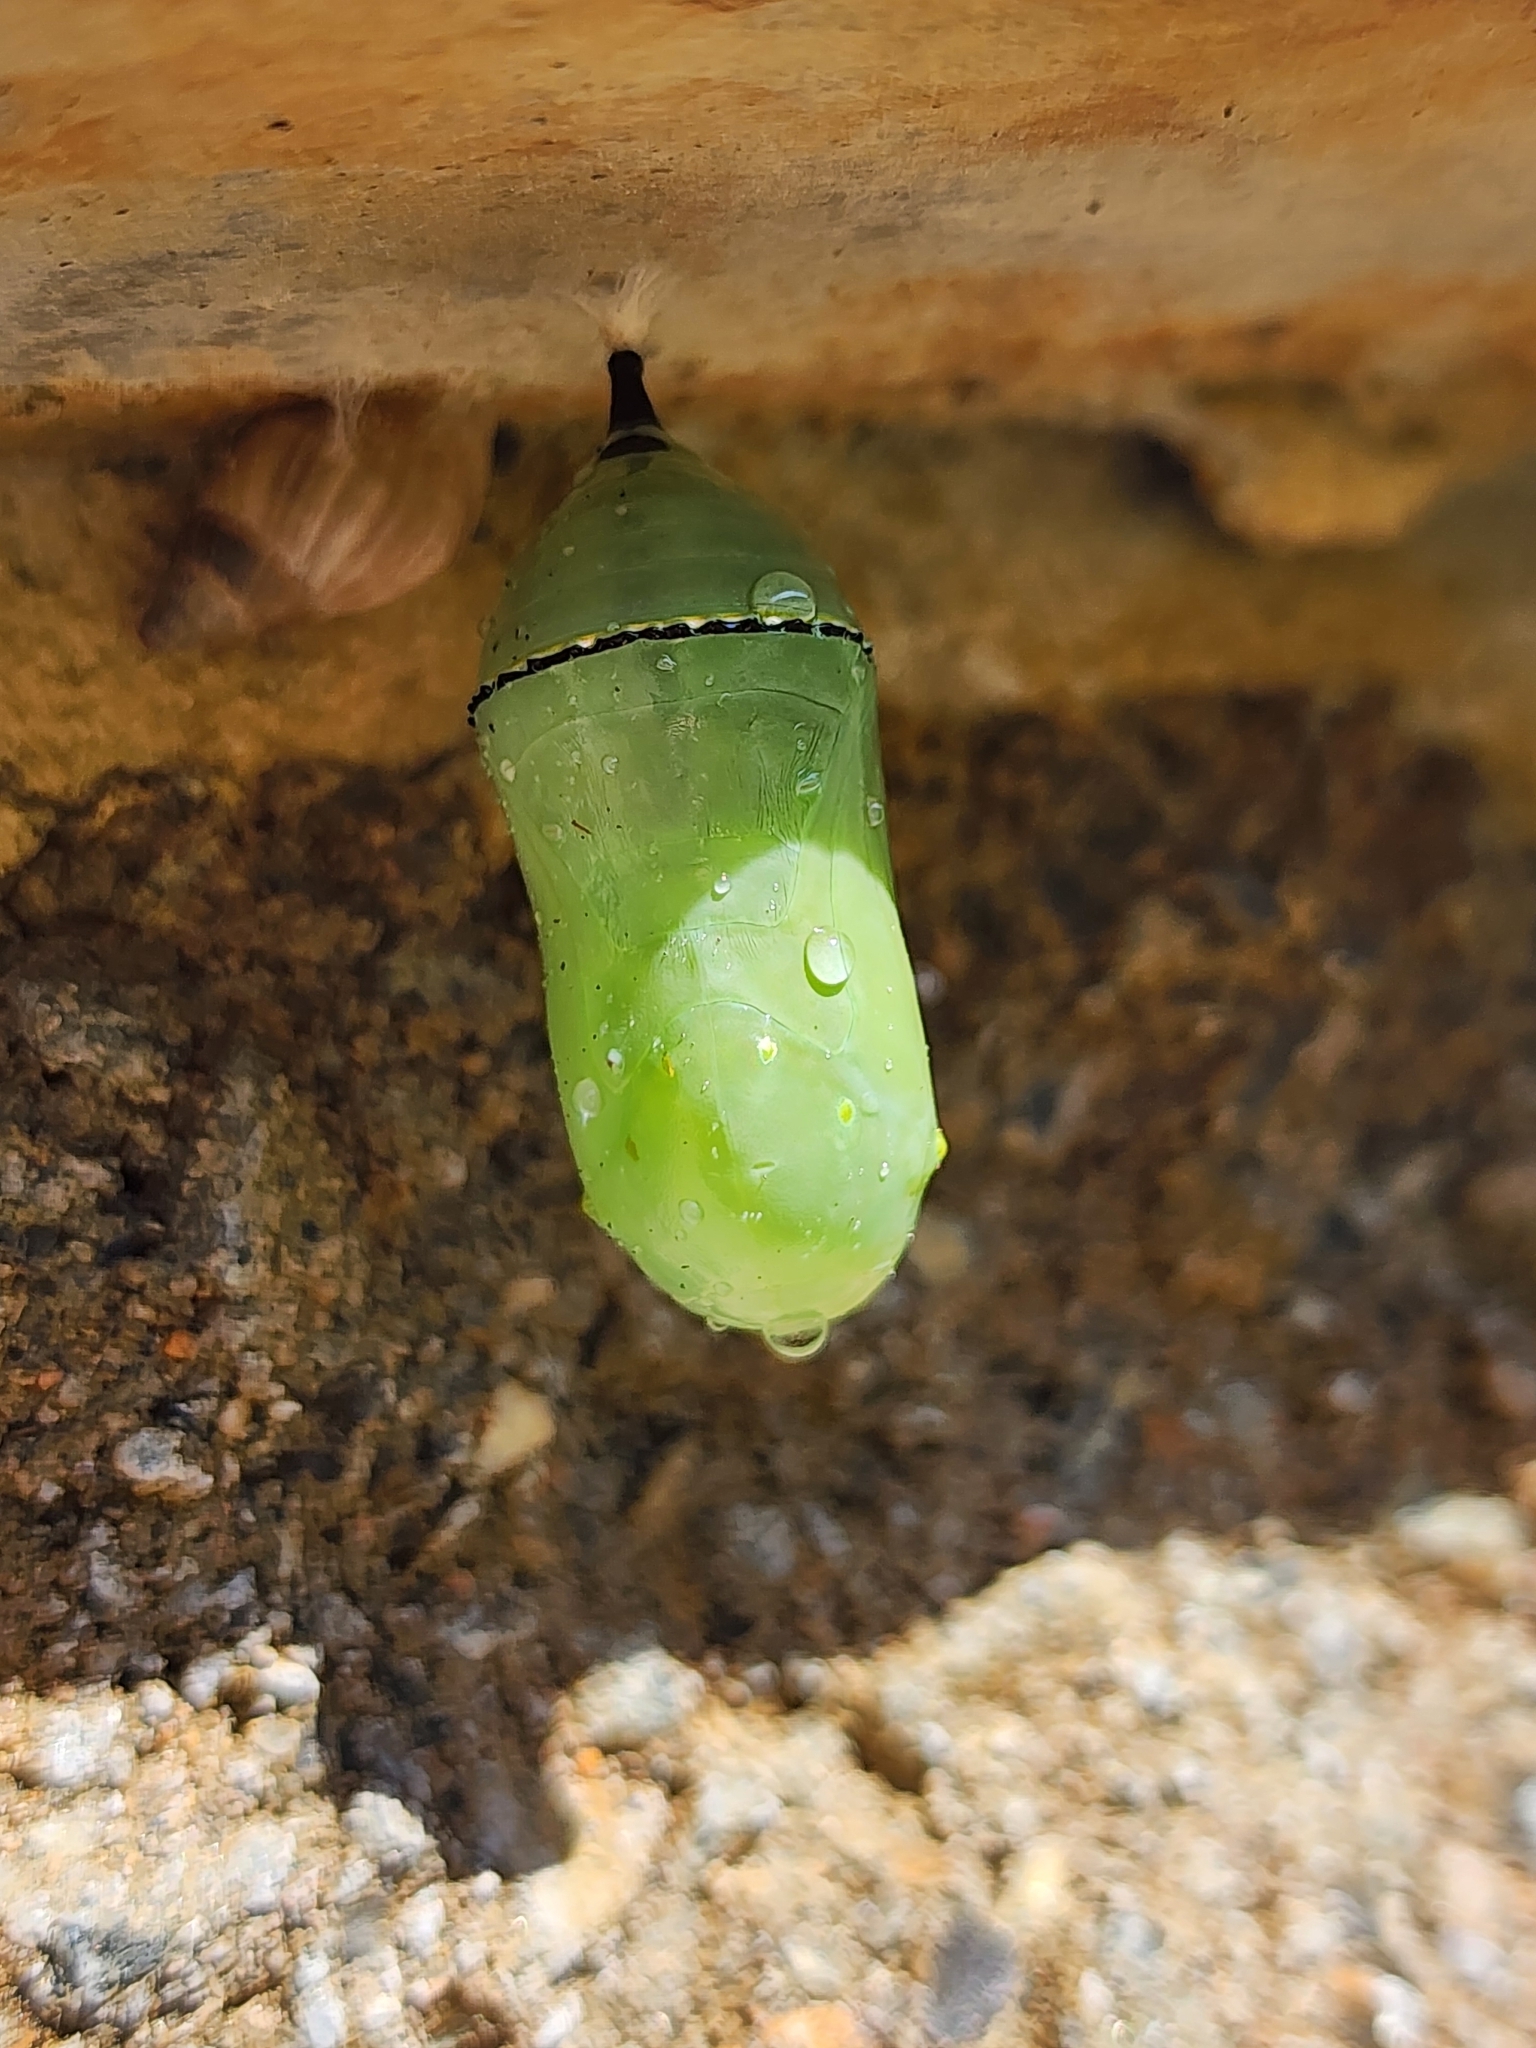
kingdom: Animalia
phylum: Arthropoda
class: Insecta
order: Lepidoptera
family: Nymphalidae
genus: Danaus
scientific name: Danaus plexippus
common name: Monarch
